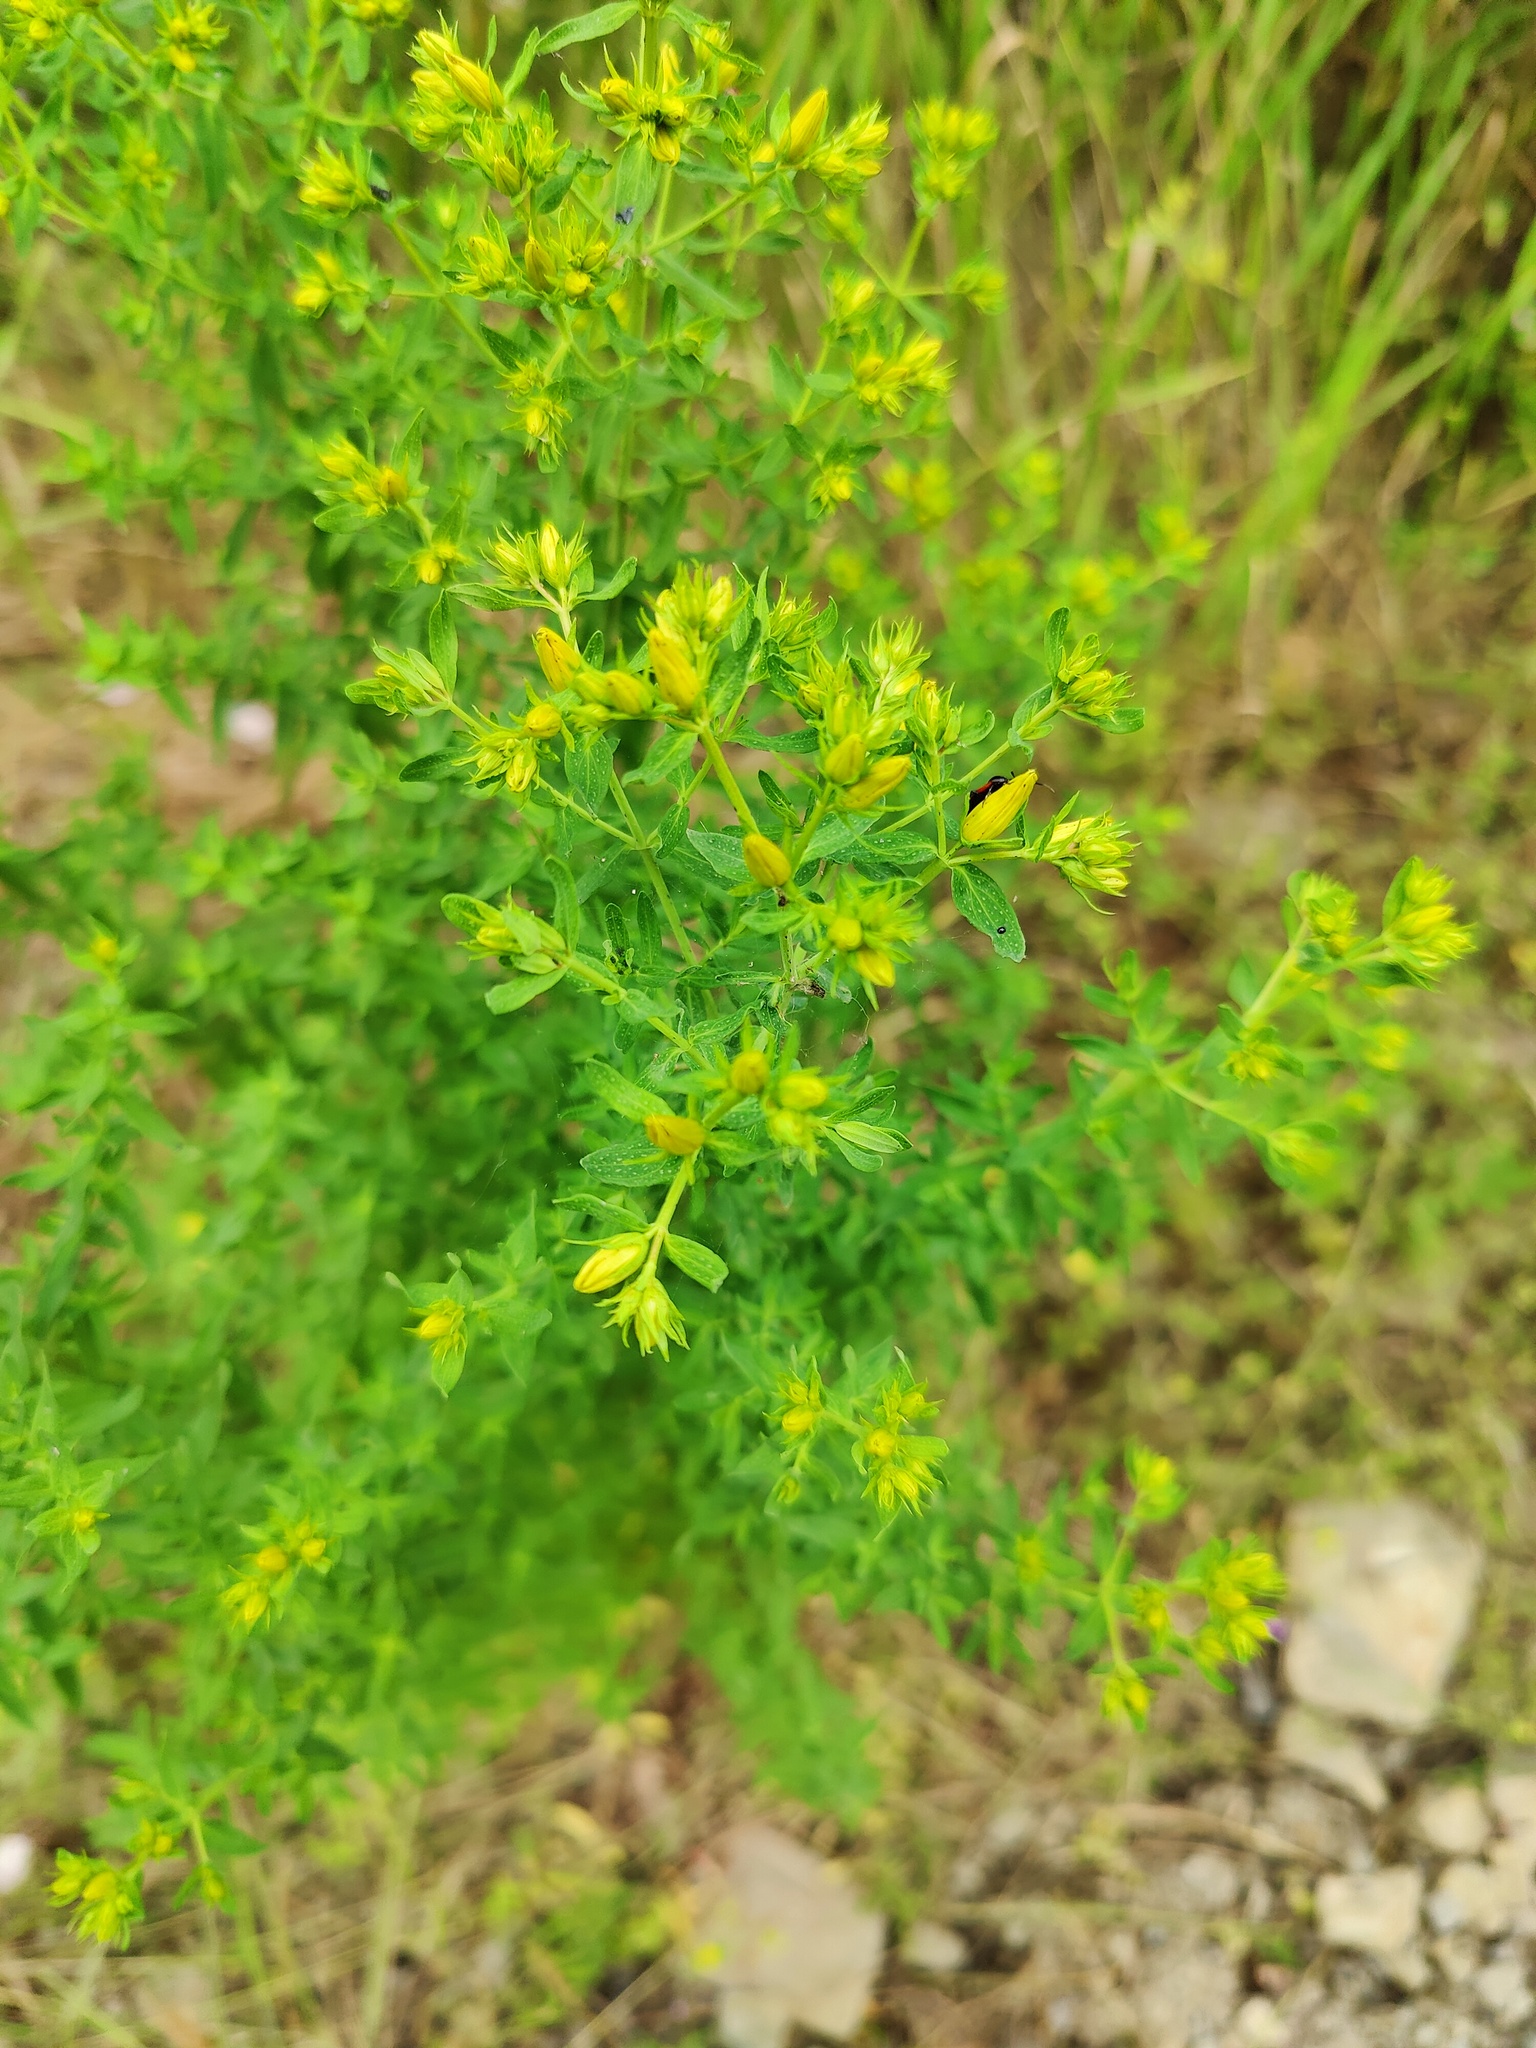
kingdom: Plantae
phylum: Tracheophyta
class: Magnoliopsida
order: Malpighiales
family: Hypericaceae
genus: Hypericum
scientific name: Hypericum perforatum
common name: Common st. johnswort
